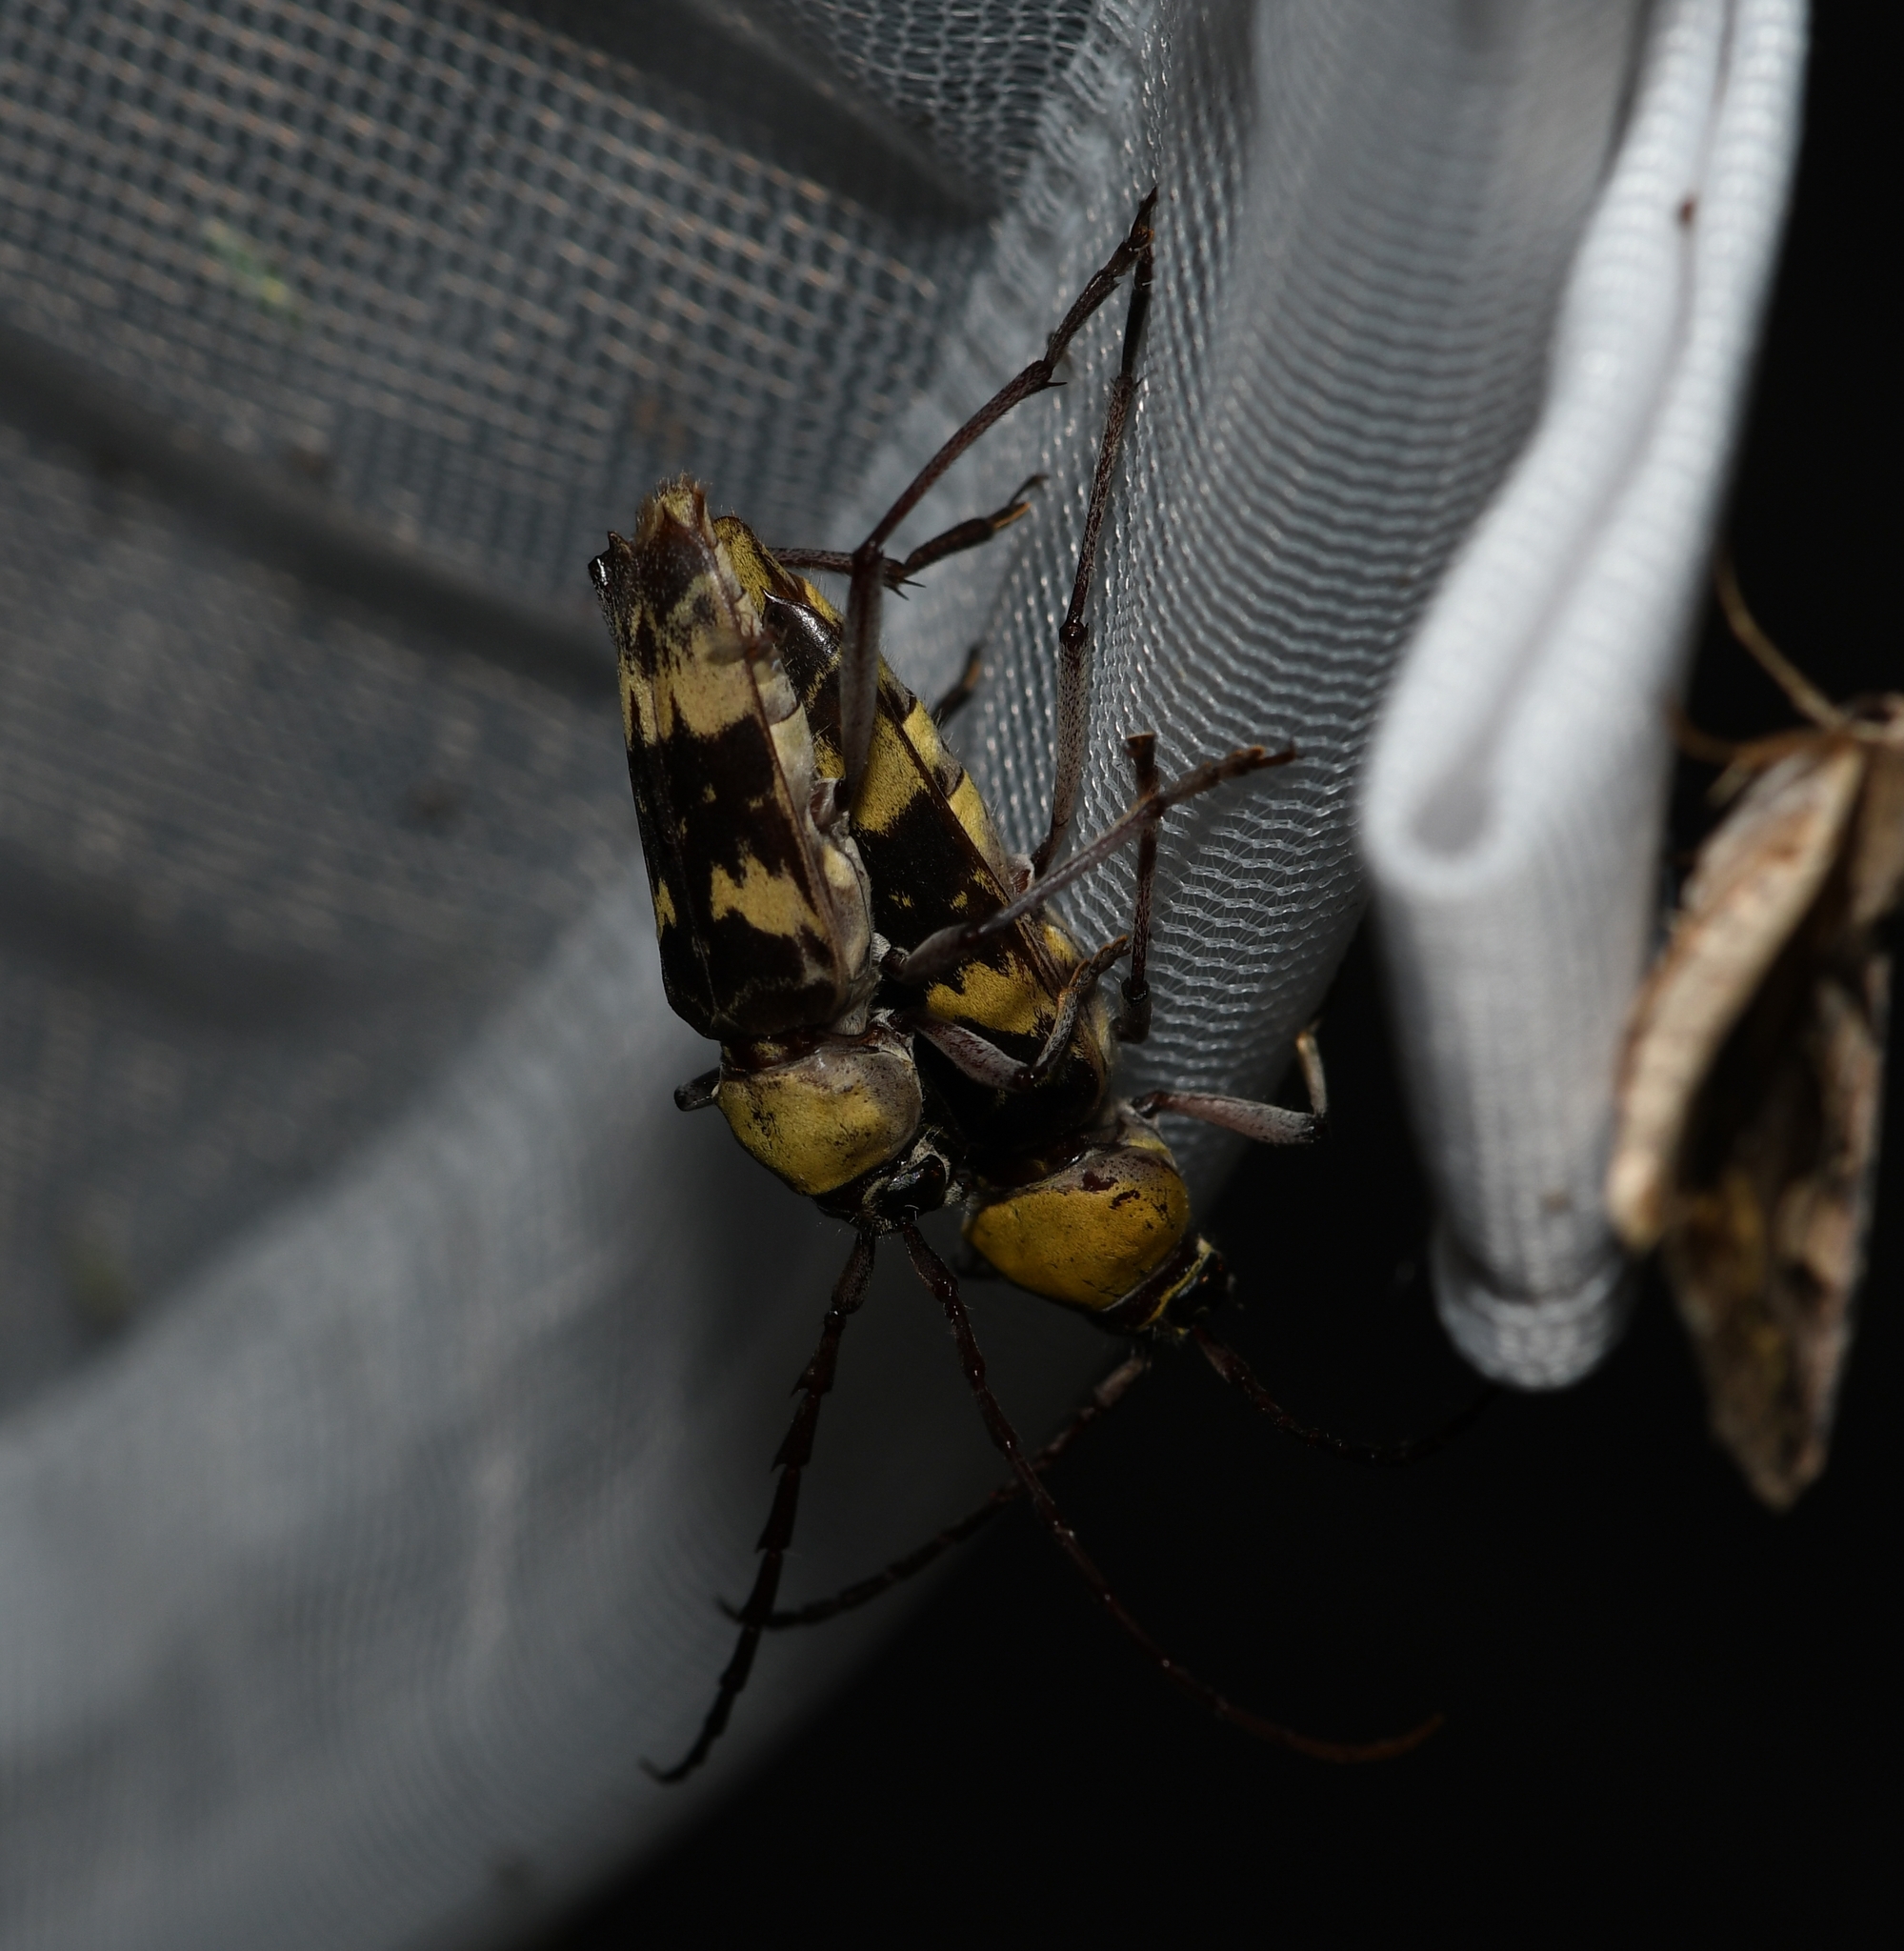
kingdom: Animalia
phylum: Arthropoda
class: Insecta
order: Coleoptera
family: Cerambycidae
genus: Megacyllene
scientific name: Megacyllene antennata
